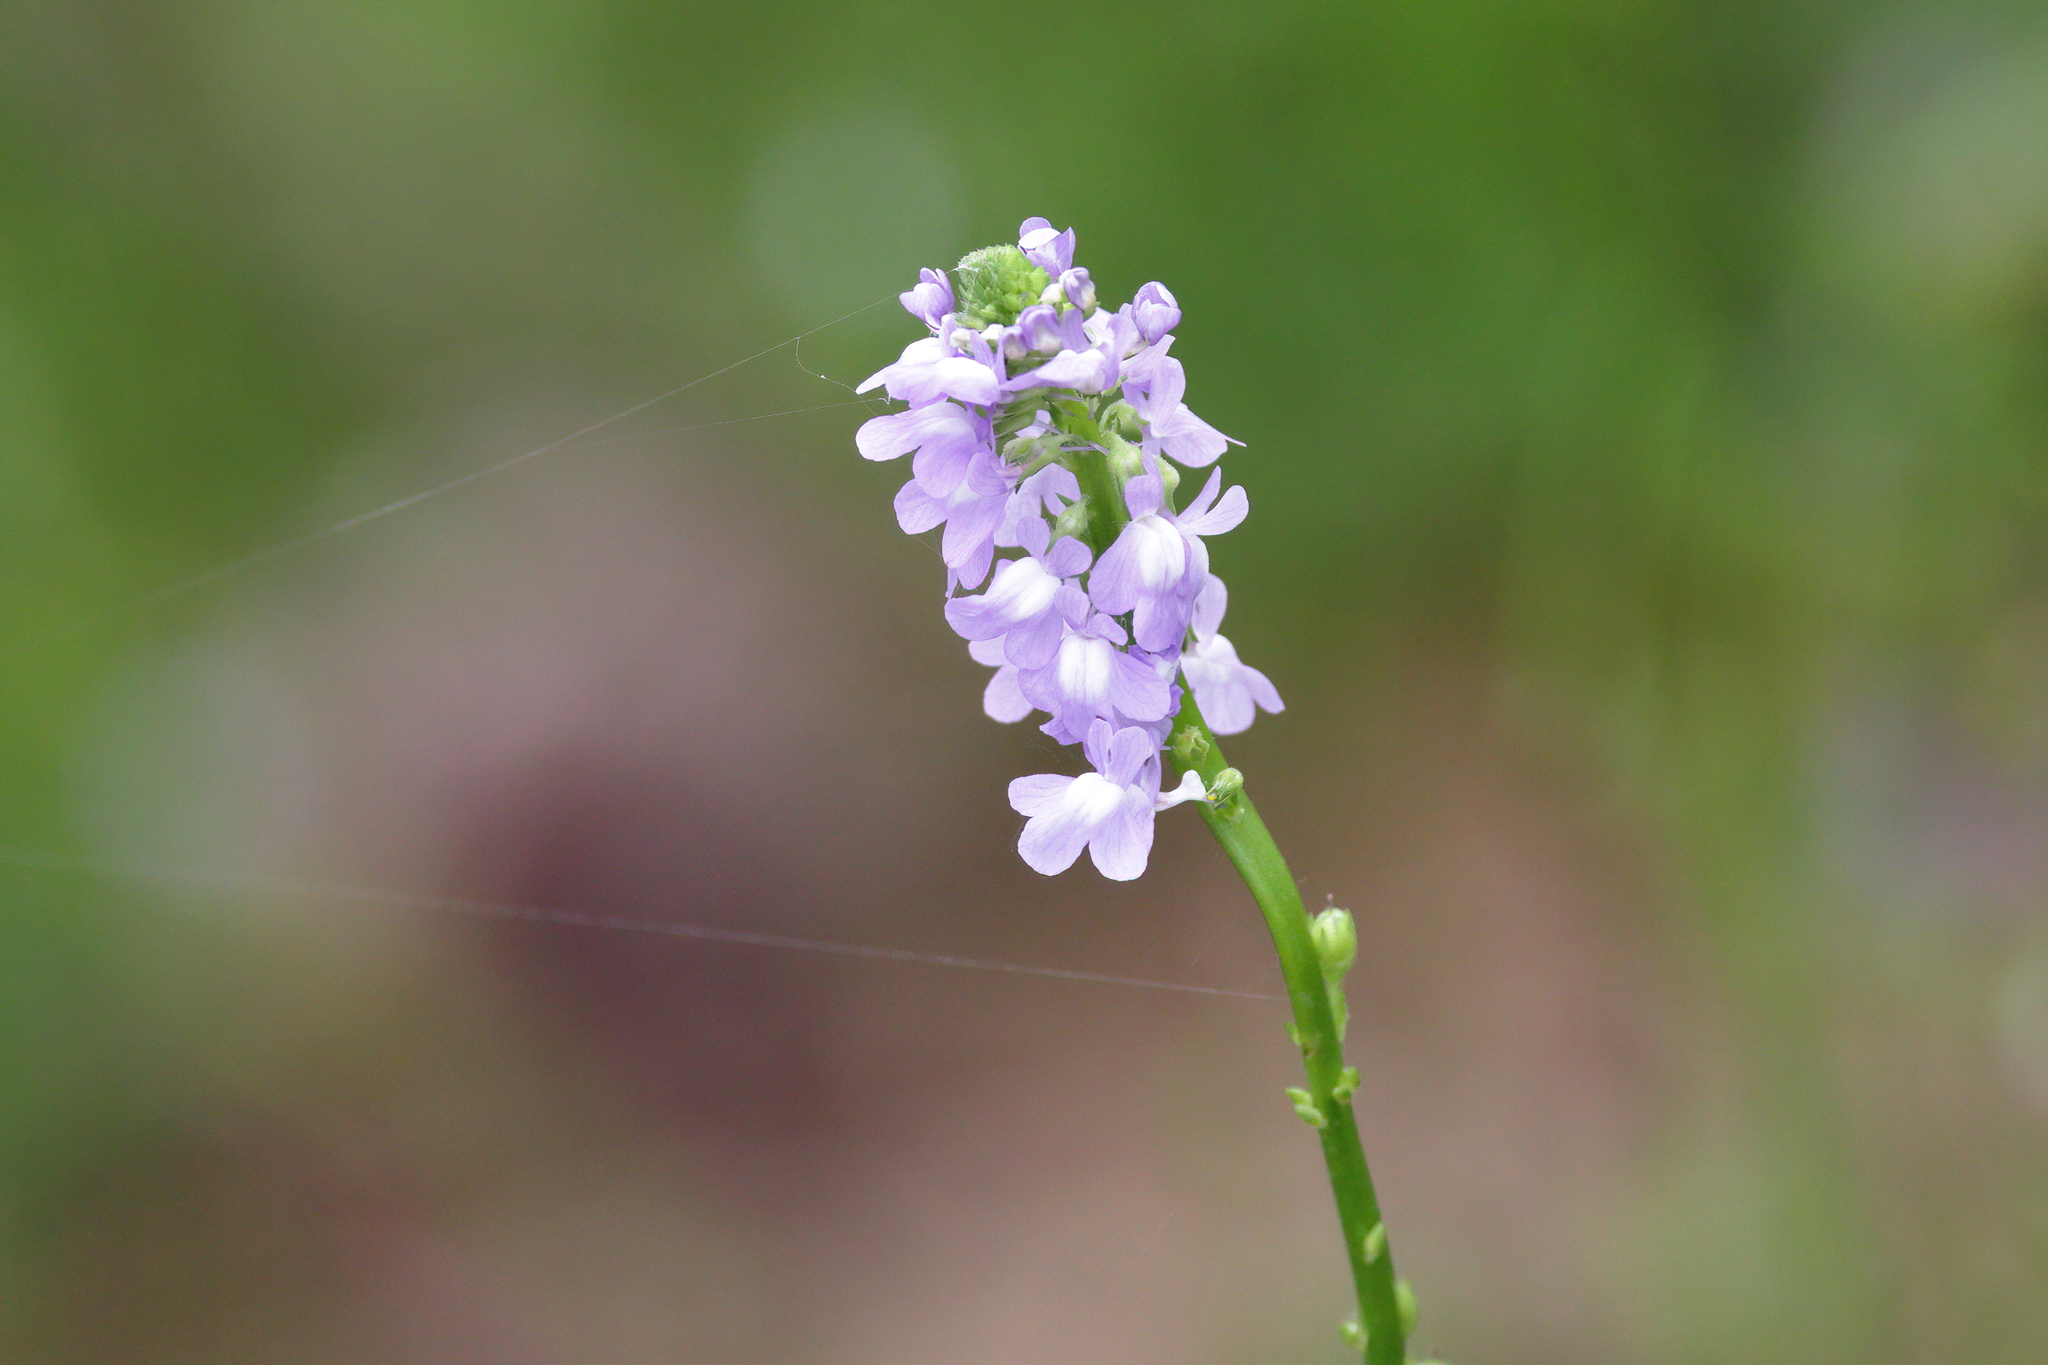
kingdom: Plantae
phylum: Tracheophyta
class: Magnoliopsida
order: Lamiales
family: Plantaginaceae
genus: Nuttallanthus
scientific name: Nuttallanthus canadensis
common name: Blue toadflax
